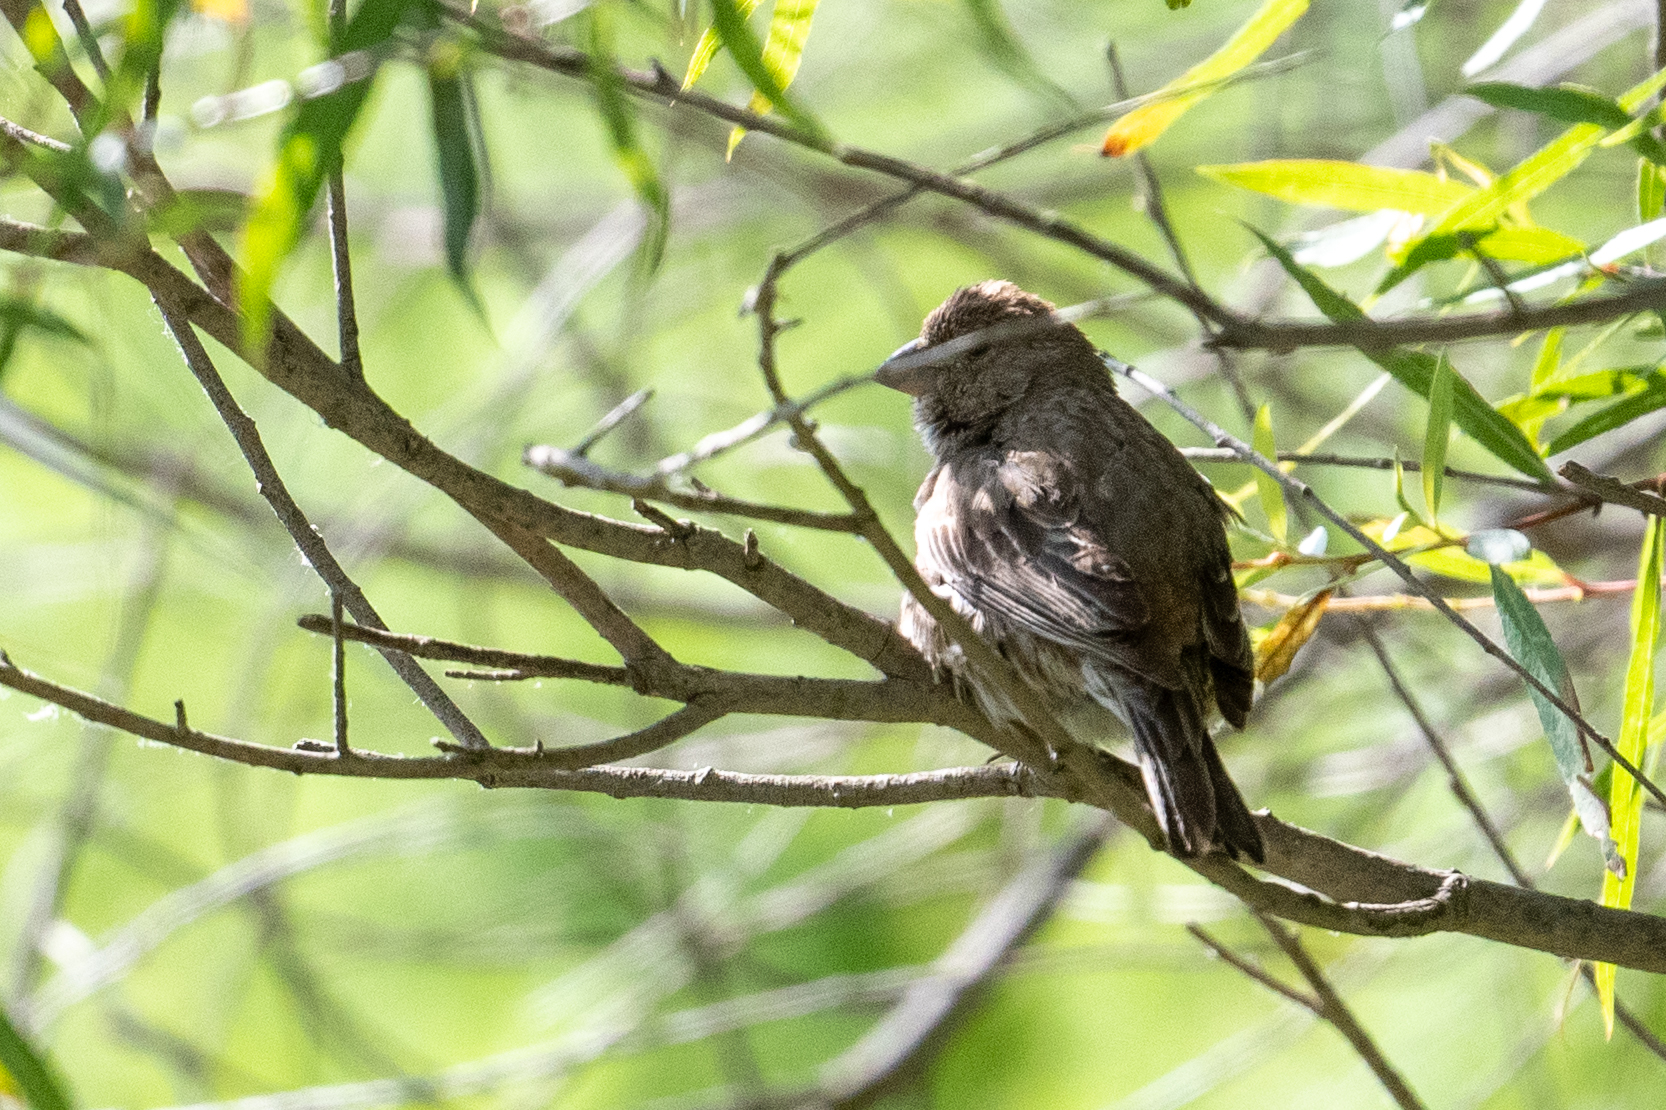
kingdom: Animalia
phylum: Chordata
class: Aves
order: Passeriformes
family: Fringillidae
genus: Haemorhous
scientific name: Haemorhous mexicanus
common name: House finch
